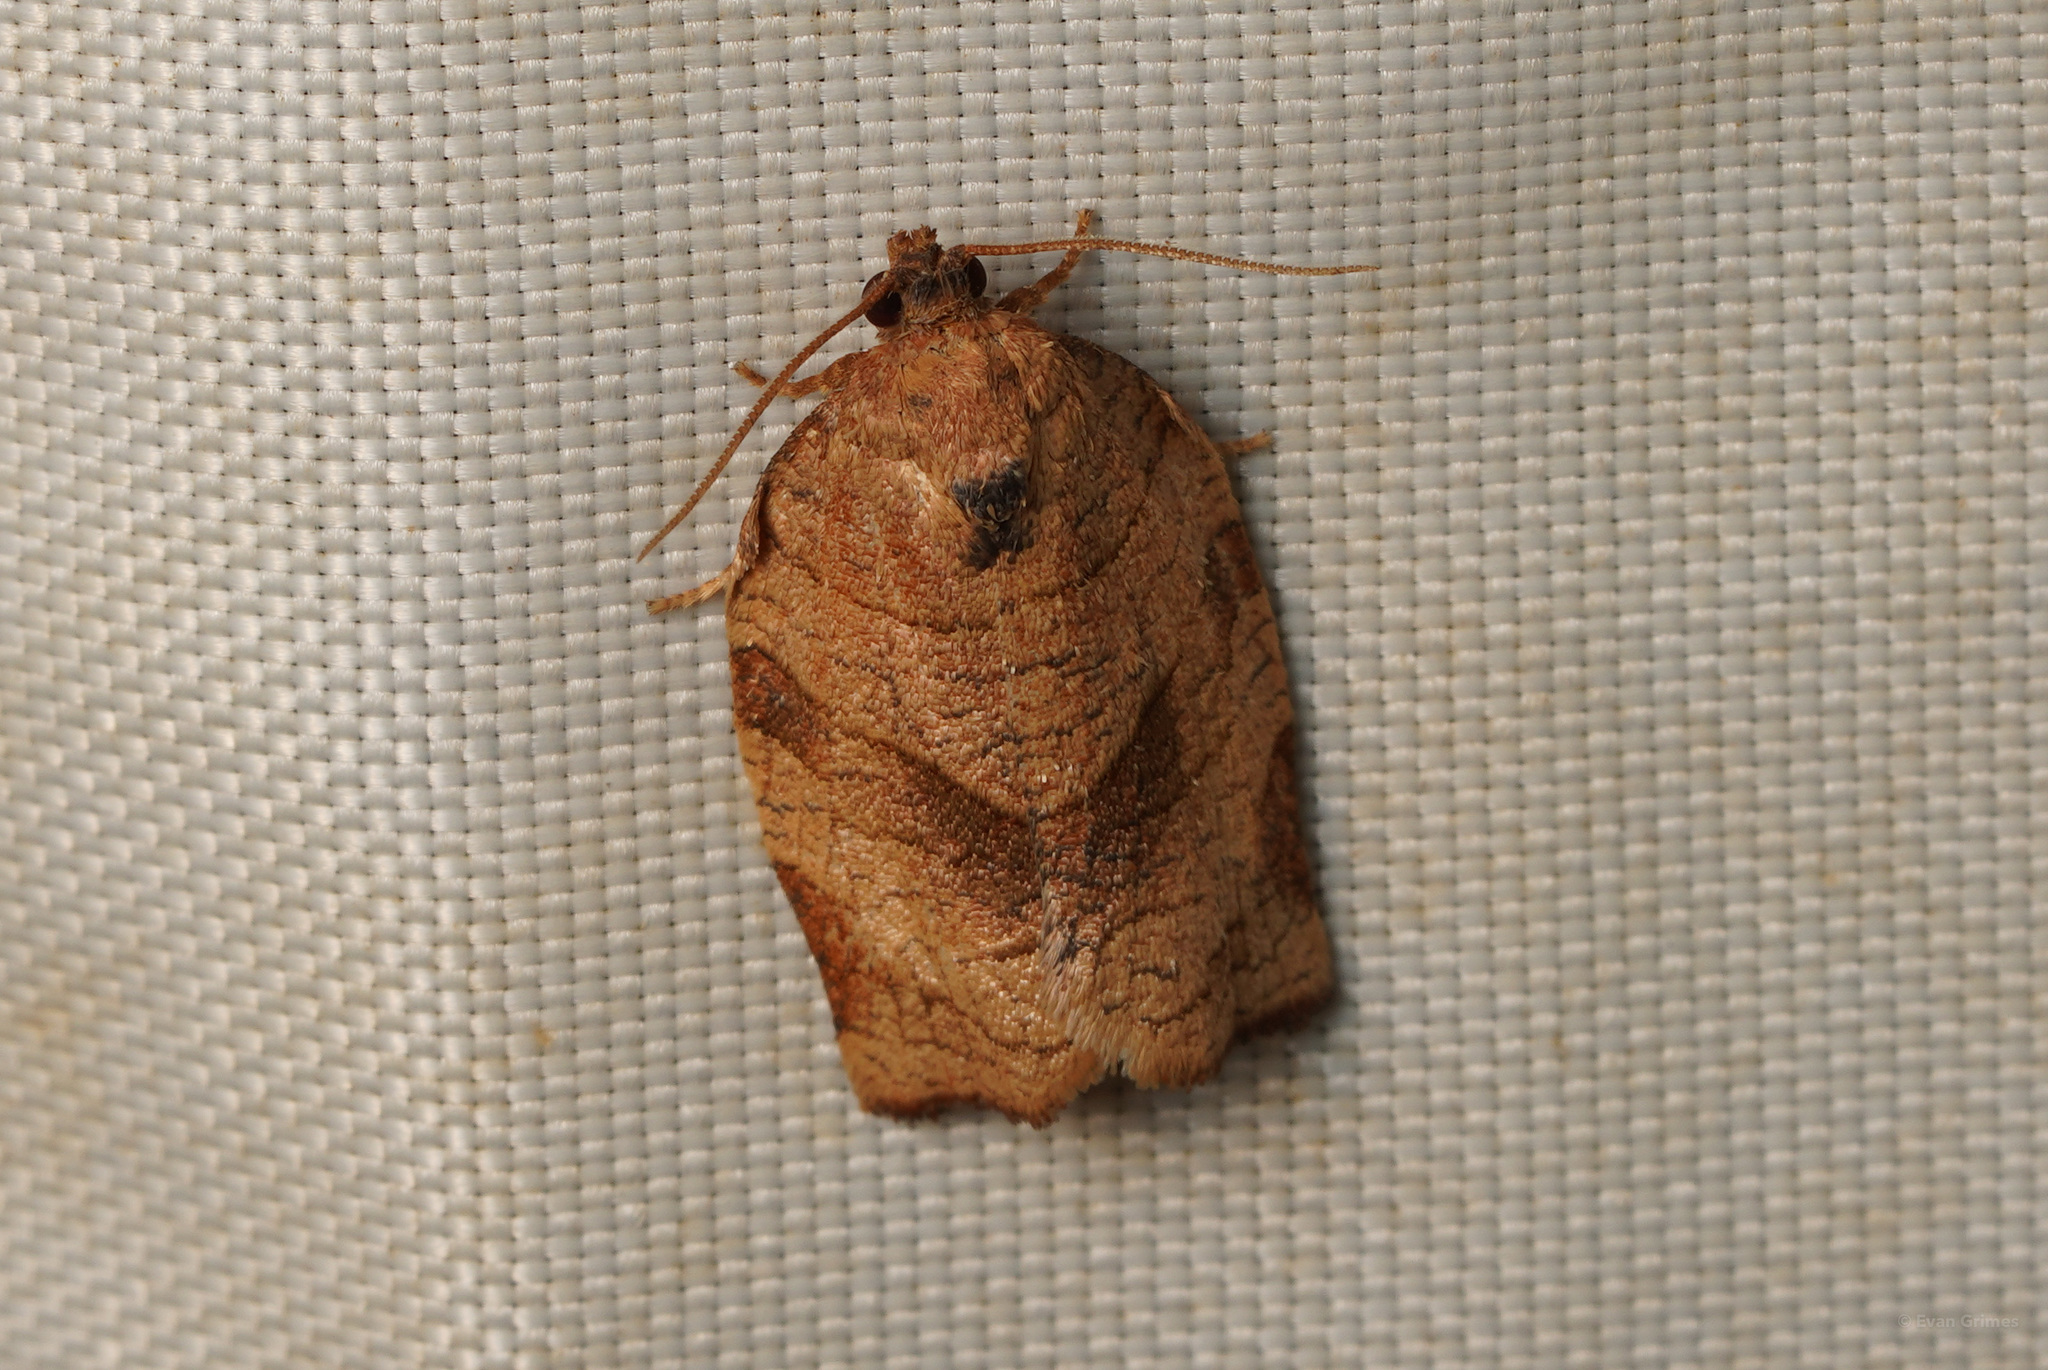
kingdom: Animalia
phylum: Arthropoda
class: Insecta
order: Lepidoptera
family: Tortricidae
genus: Choristoneura
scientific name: Choristoneura rosaceana
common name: Oblique-banded leafroller moth
